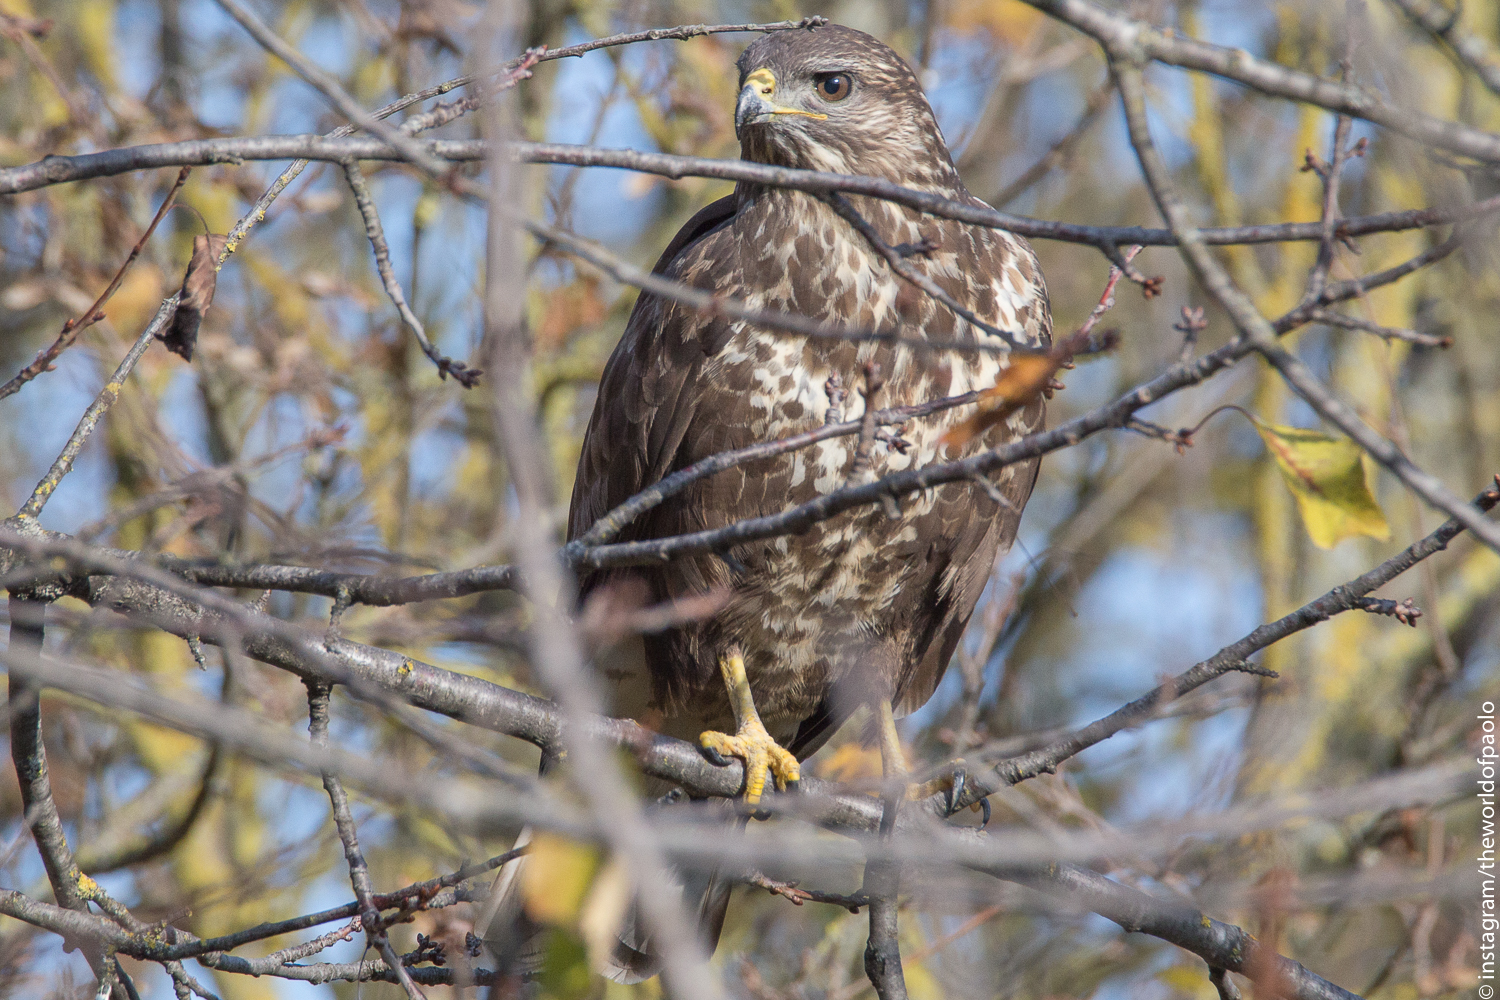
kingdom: Animalia
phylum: Chordata
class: Aves
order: Accipitriformes
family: Accipitridae
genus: Buteo
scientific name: Buteo buteo
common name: Common buzzard
